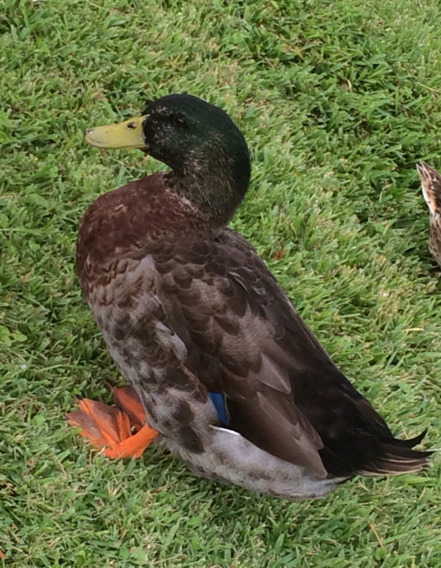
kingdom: Animalia
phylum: Chordata
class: Aves
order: Anseriformes
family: Anatidae
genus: Anas
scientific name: Anas platyrhynchos
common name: Mallard
